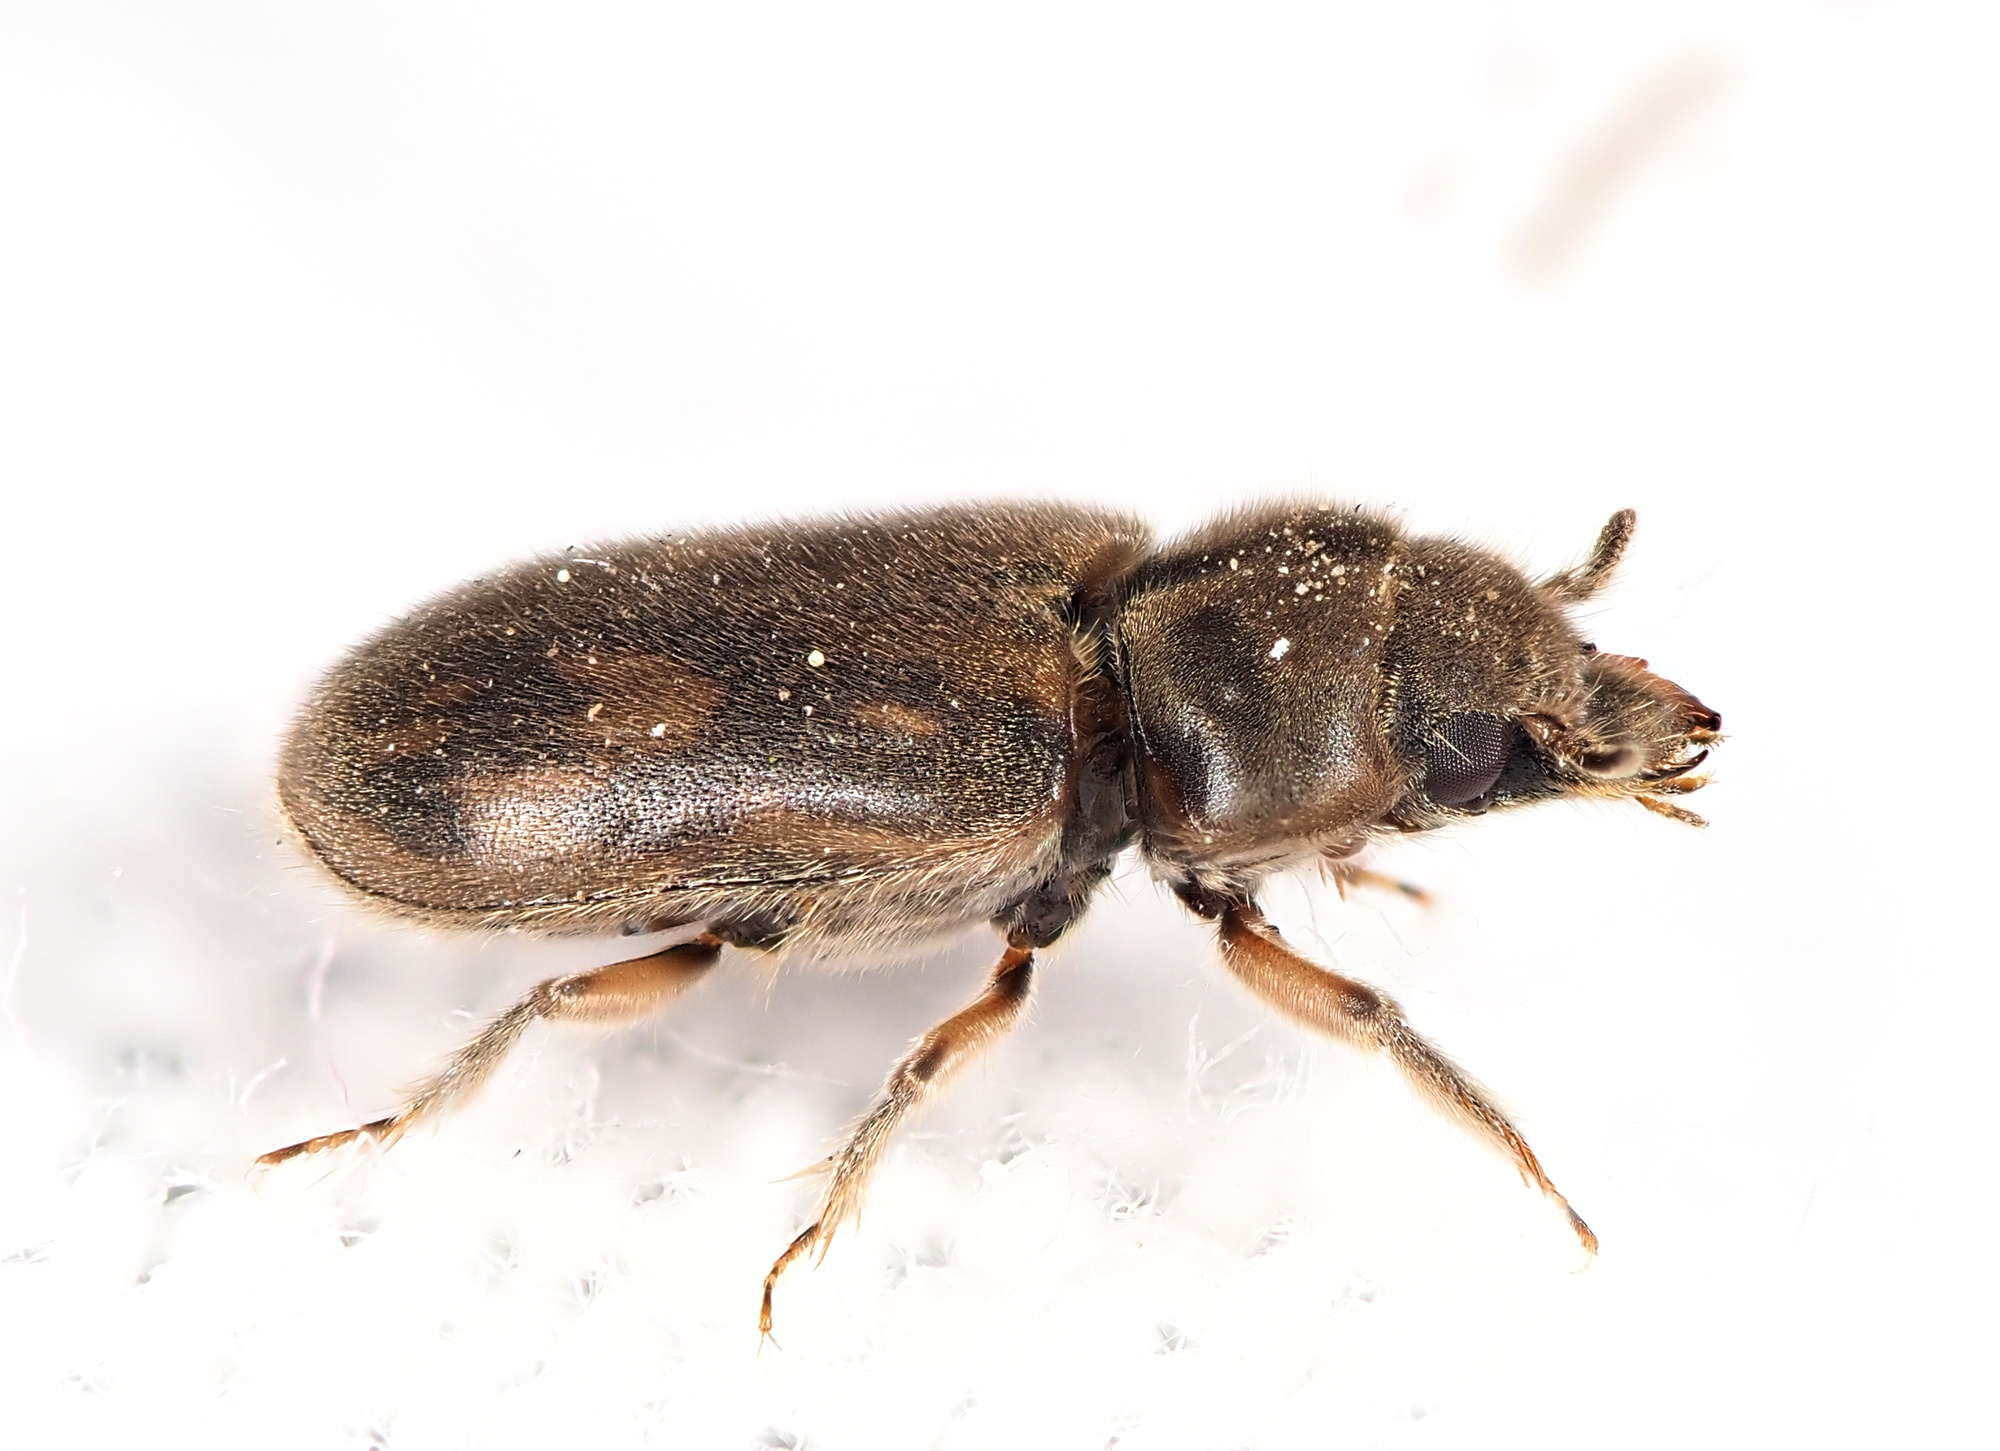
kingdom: Animalia
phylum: Arthropoda
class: Insecta
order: Coleoptera
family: Heteroceridae
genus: Heterocerus
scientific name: Heterocerus fenestratus
